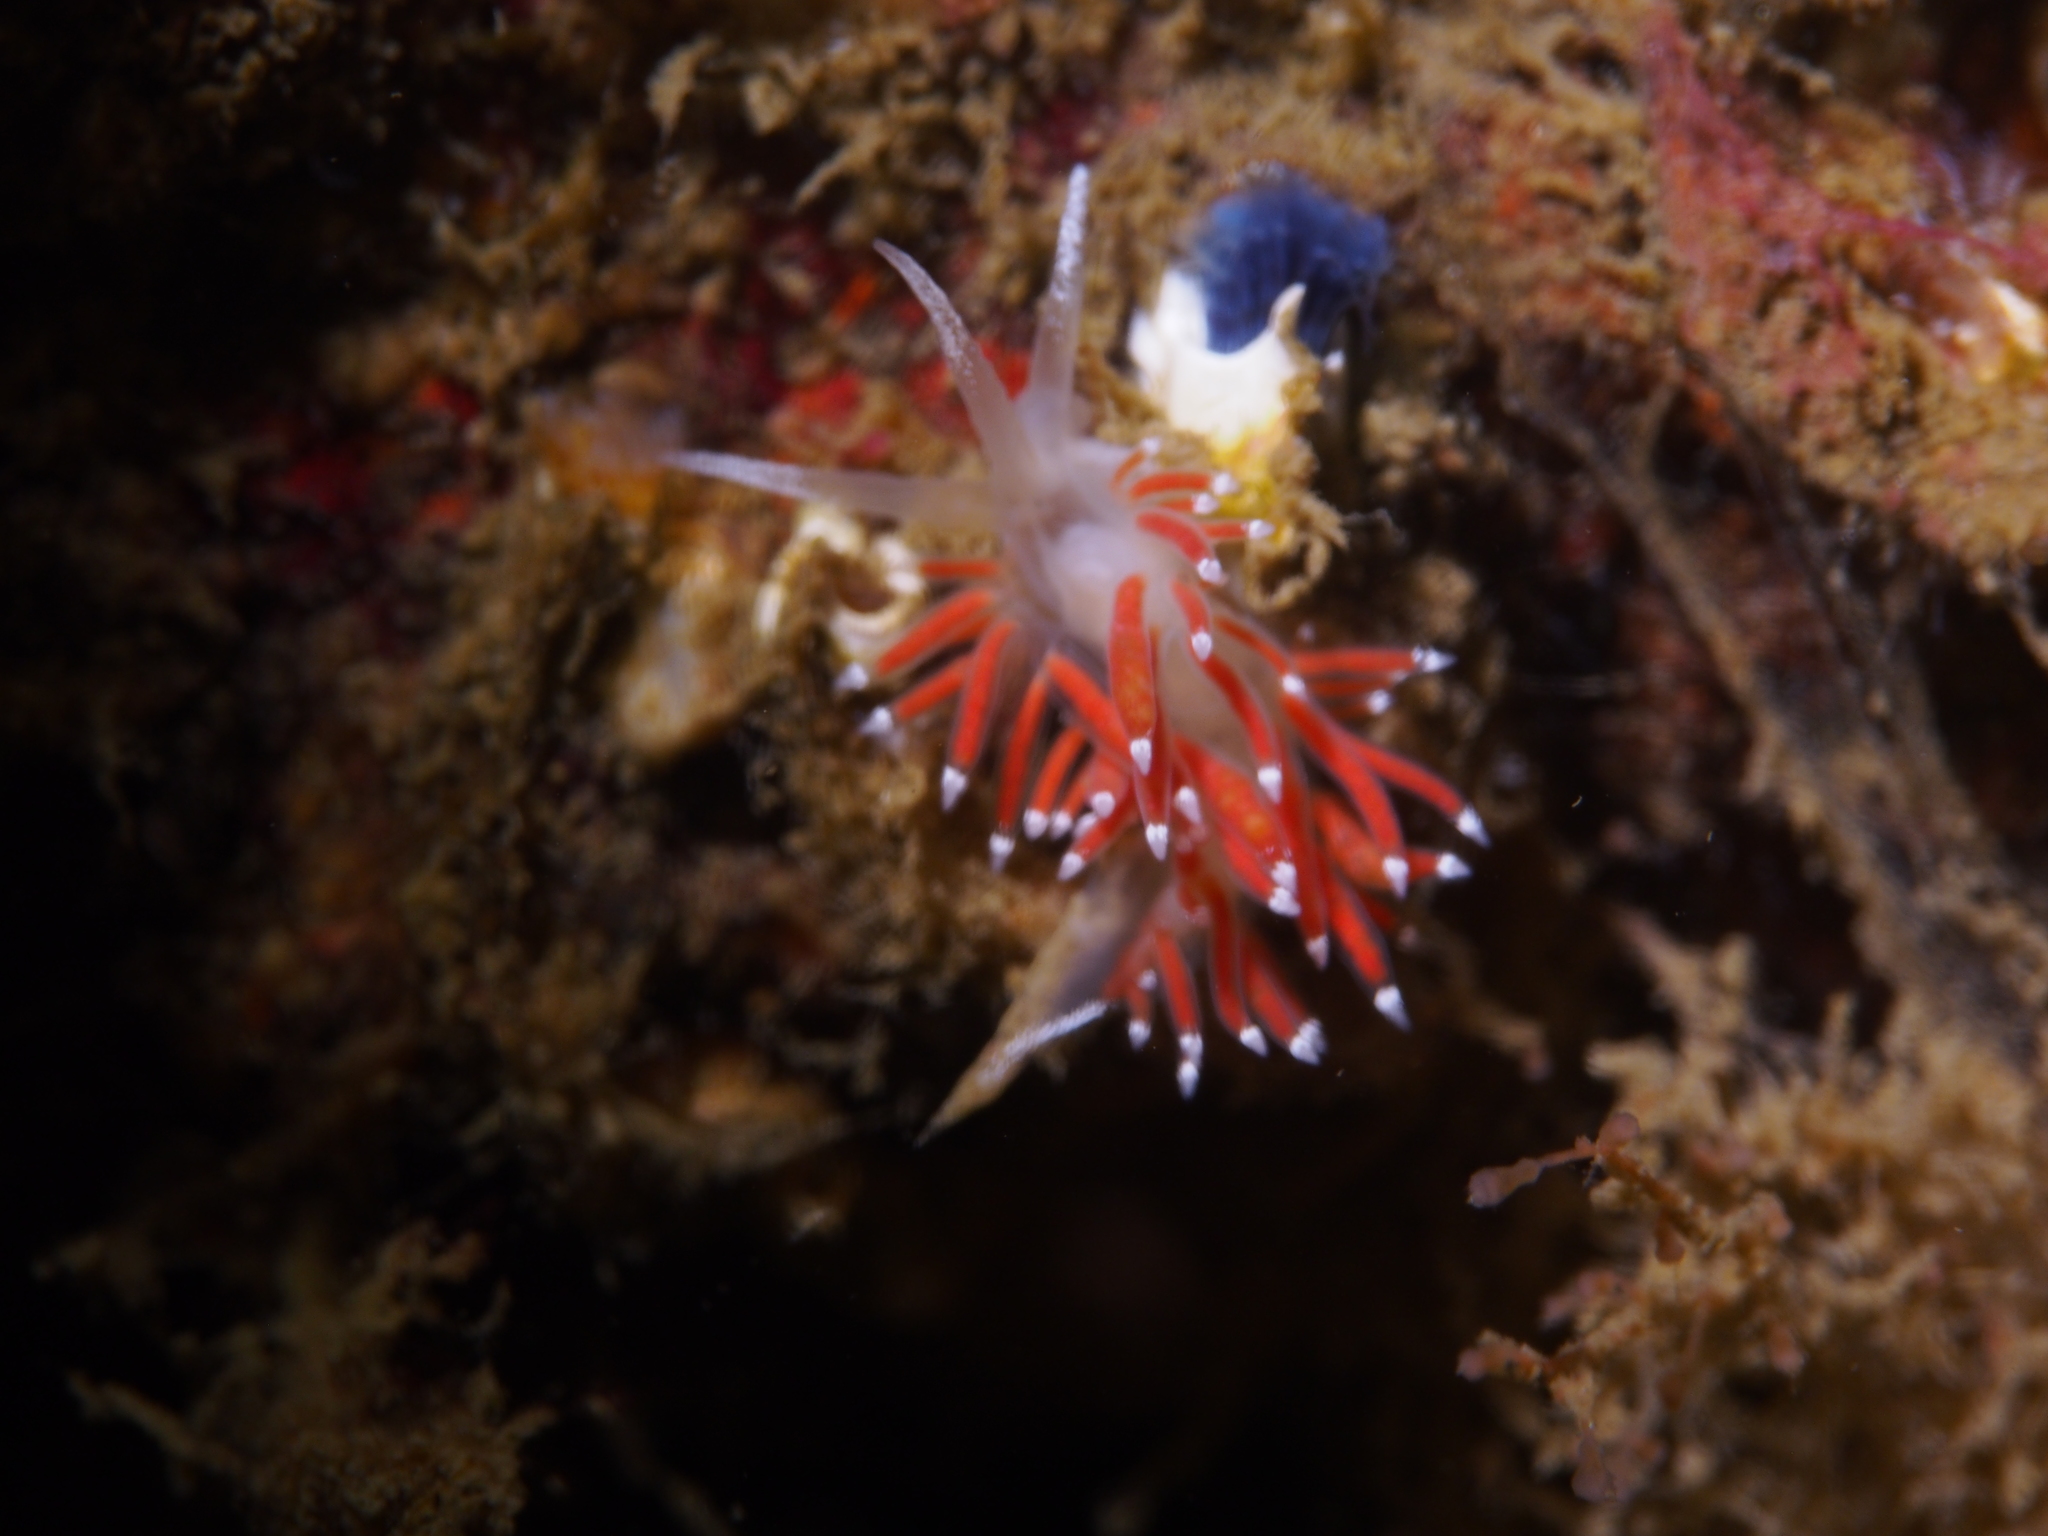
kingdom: Animalia
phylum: Mollusca
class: Gastropoda
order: Nudibranchia
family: Coryphellidae
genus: Coryphella
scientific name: Coryphella gracilis
